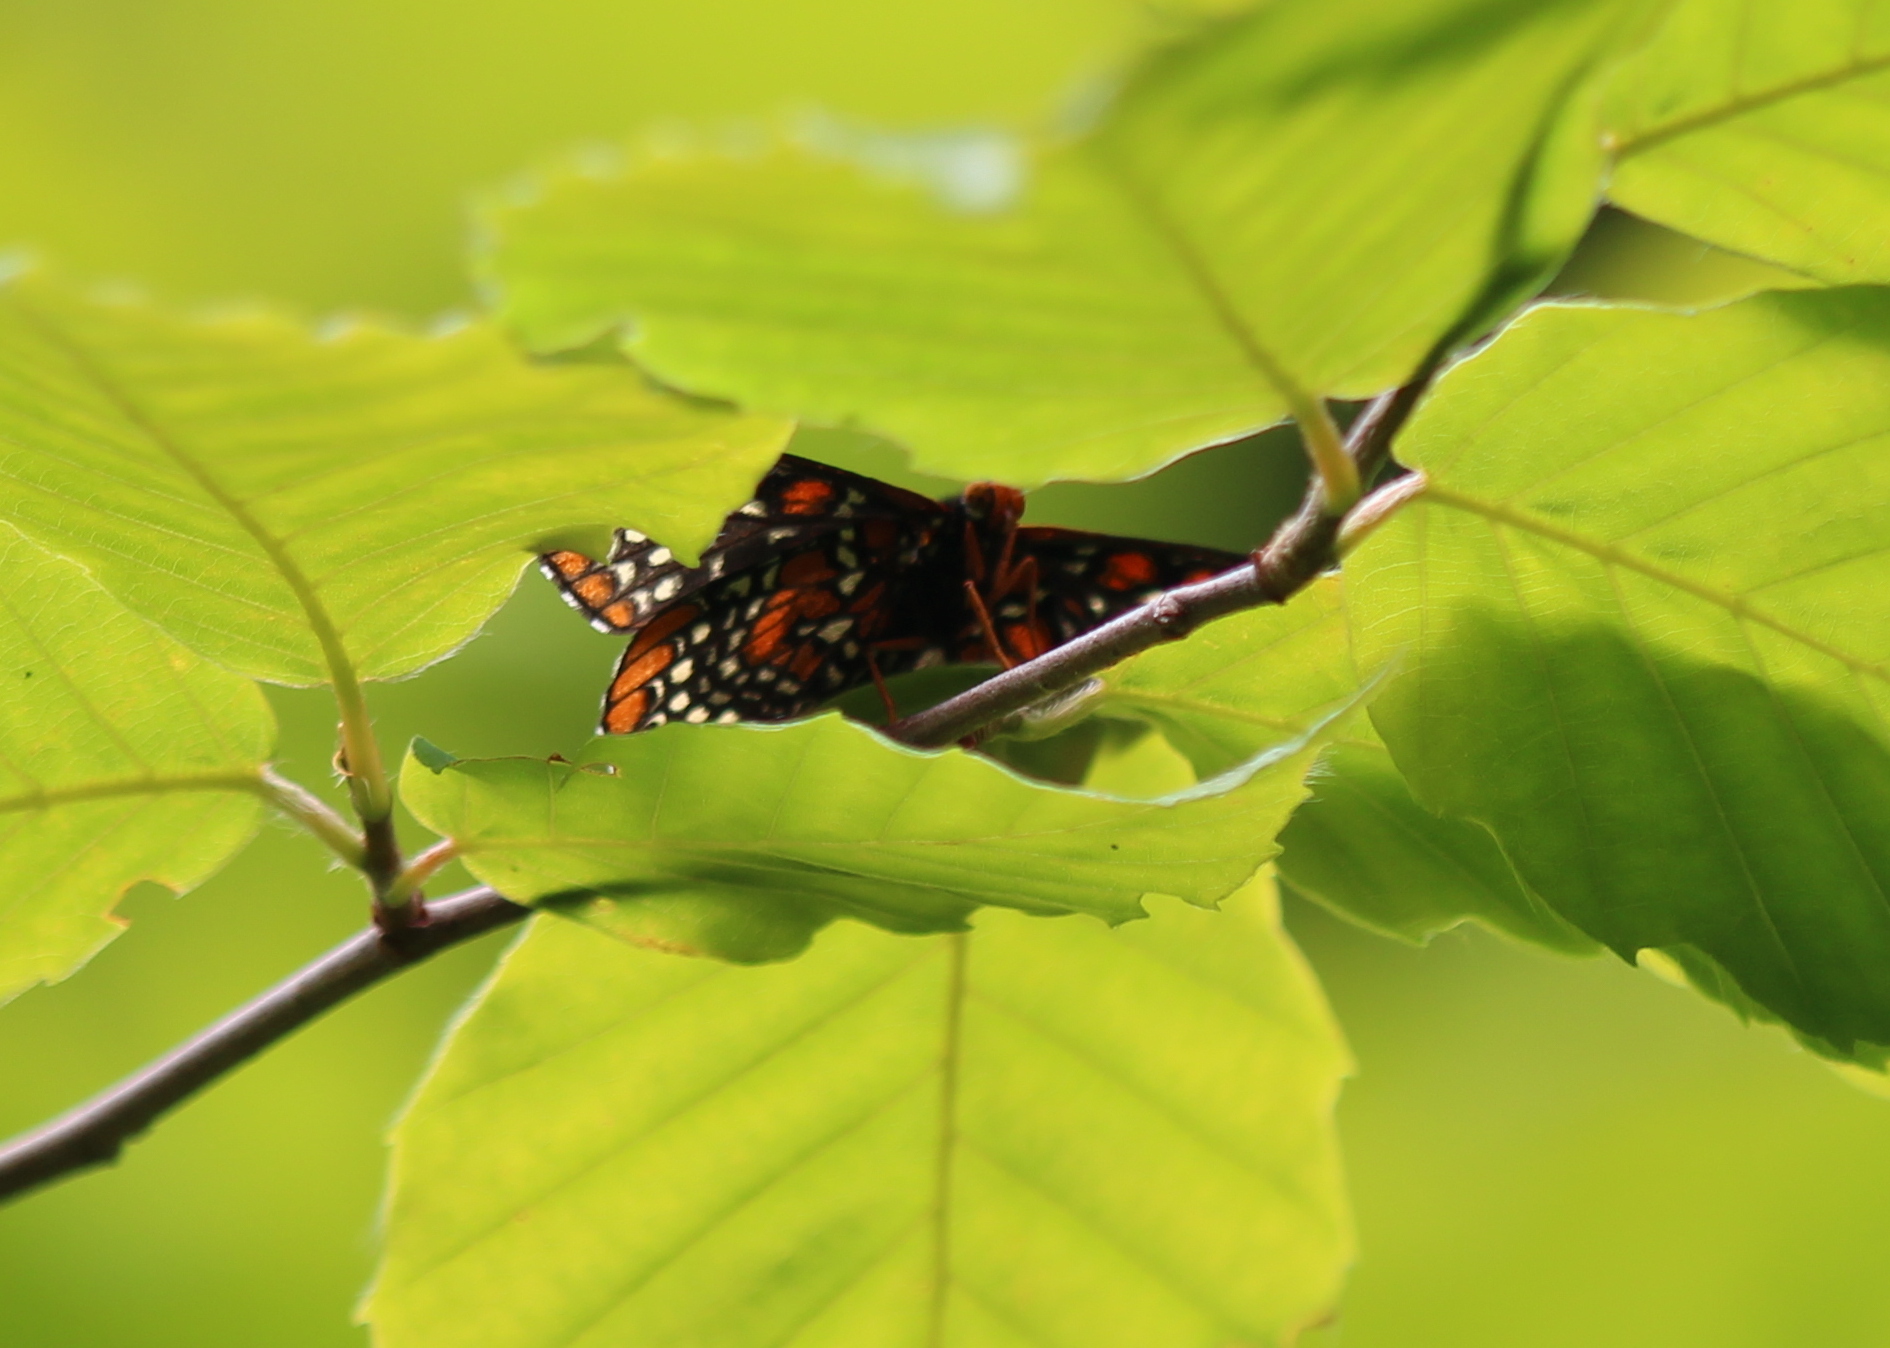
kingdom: Animalia
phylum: Arthropoda
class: Insecta
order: Lepidoptera
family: Nymphalidae
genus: Euphydryas
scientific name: Euphydryas phaeton
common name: Baltimore checkerspot
